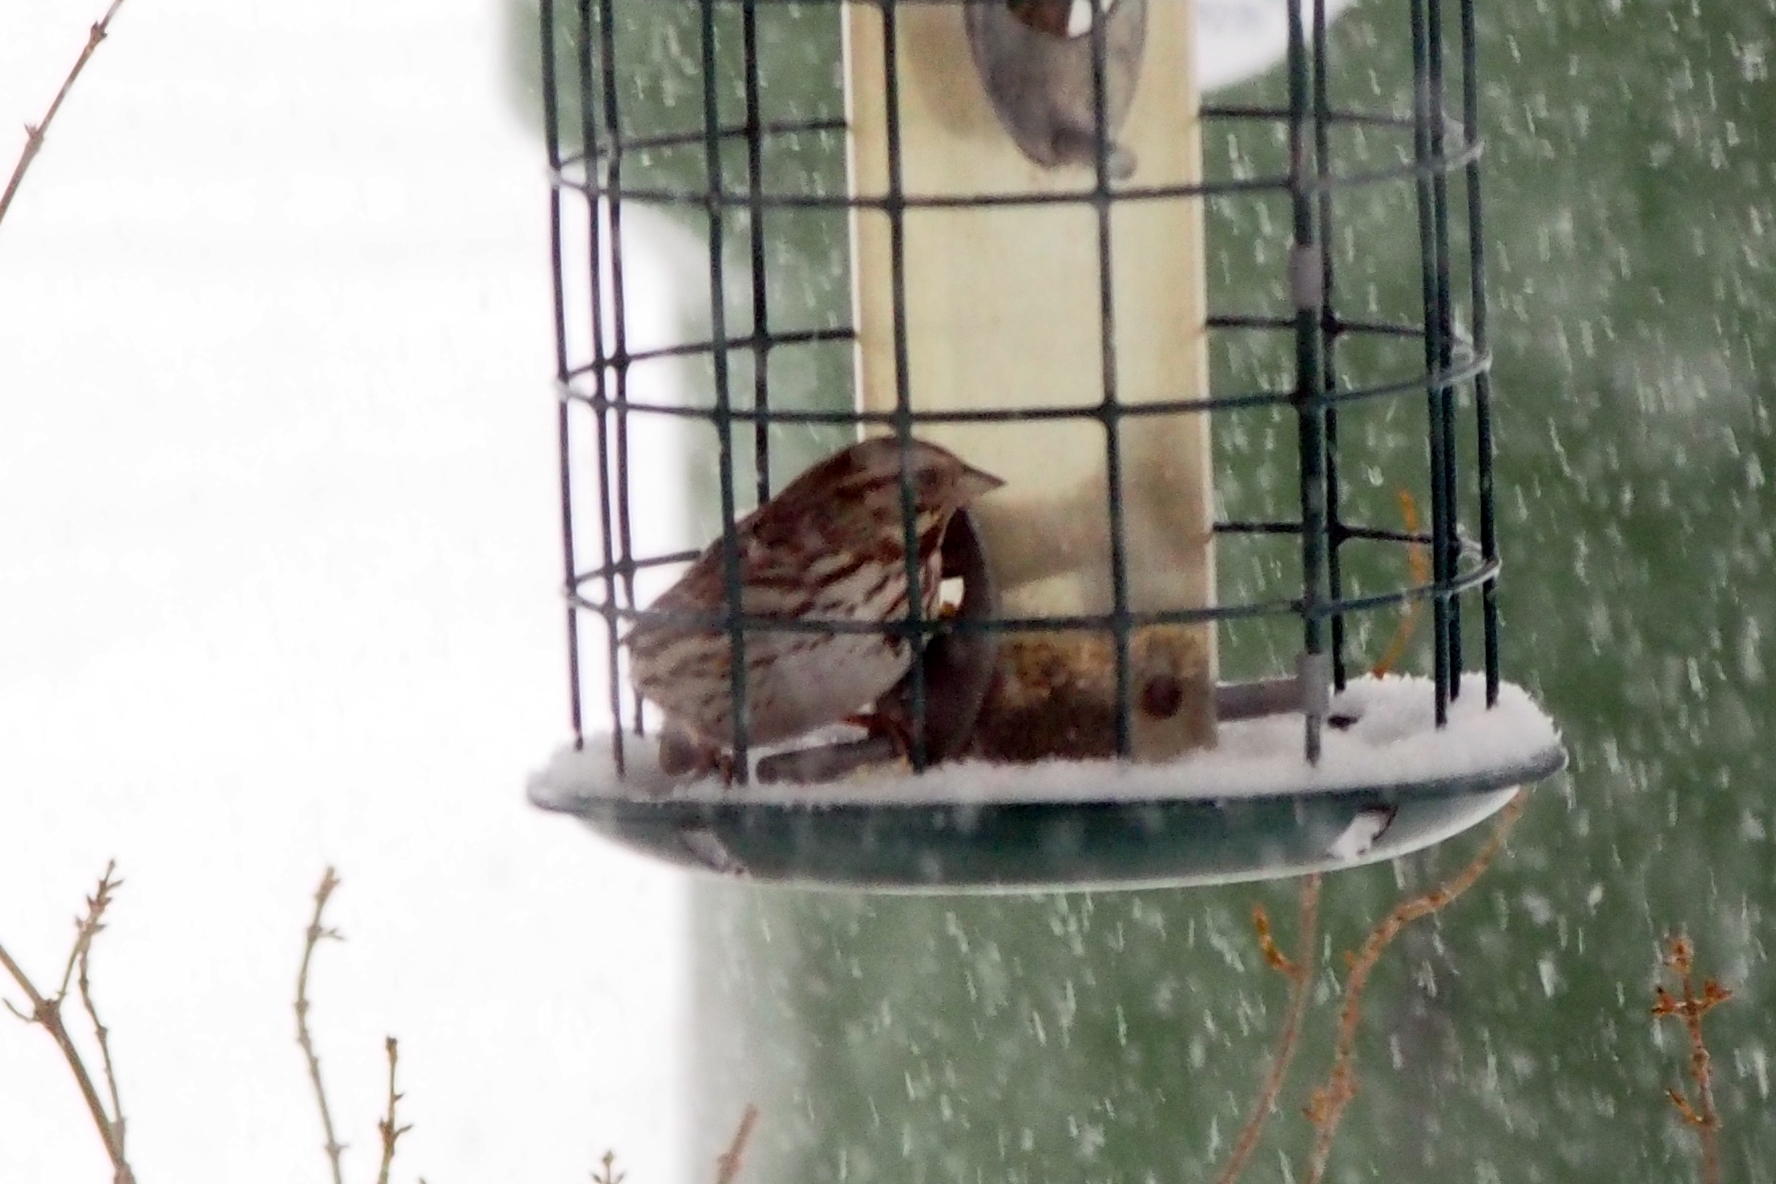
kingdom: Animalia
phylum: Chordata
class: Aves
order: Passeriformes
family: Passerellidae
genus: Melospiza
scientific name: Melospiza melodia
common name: Song sparrow
